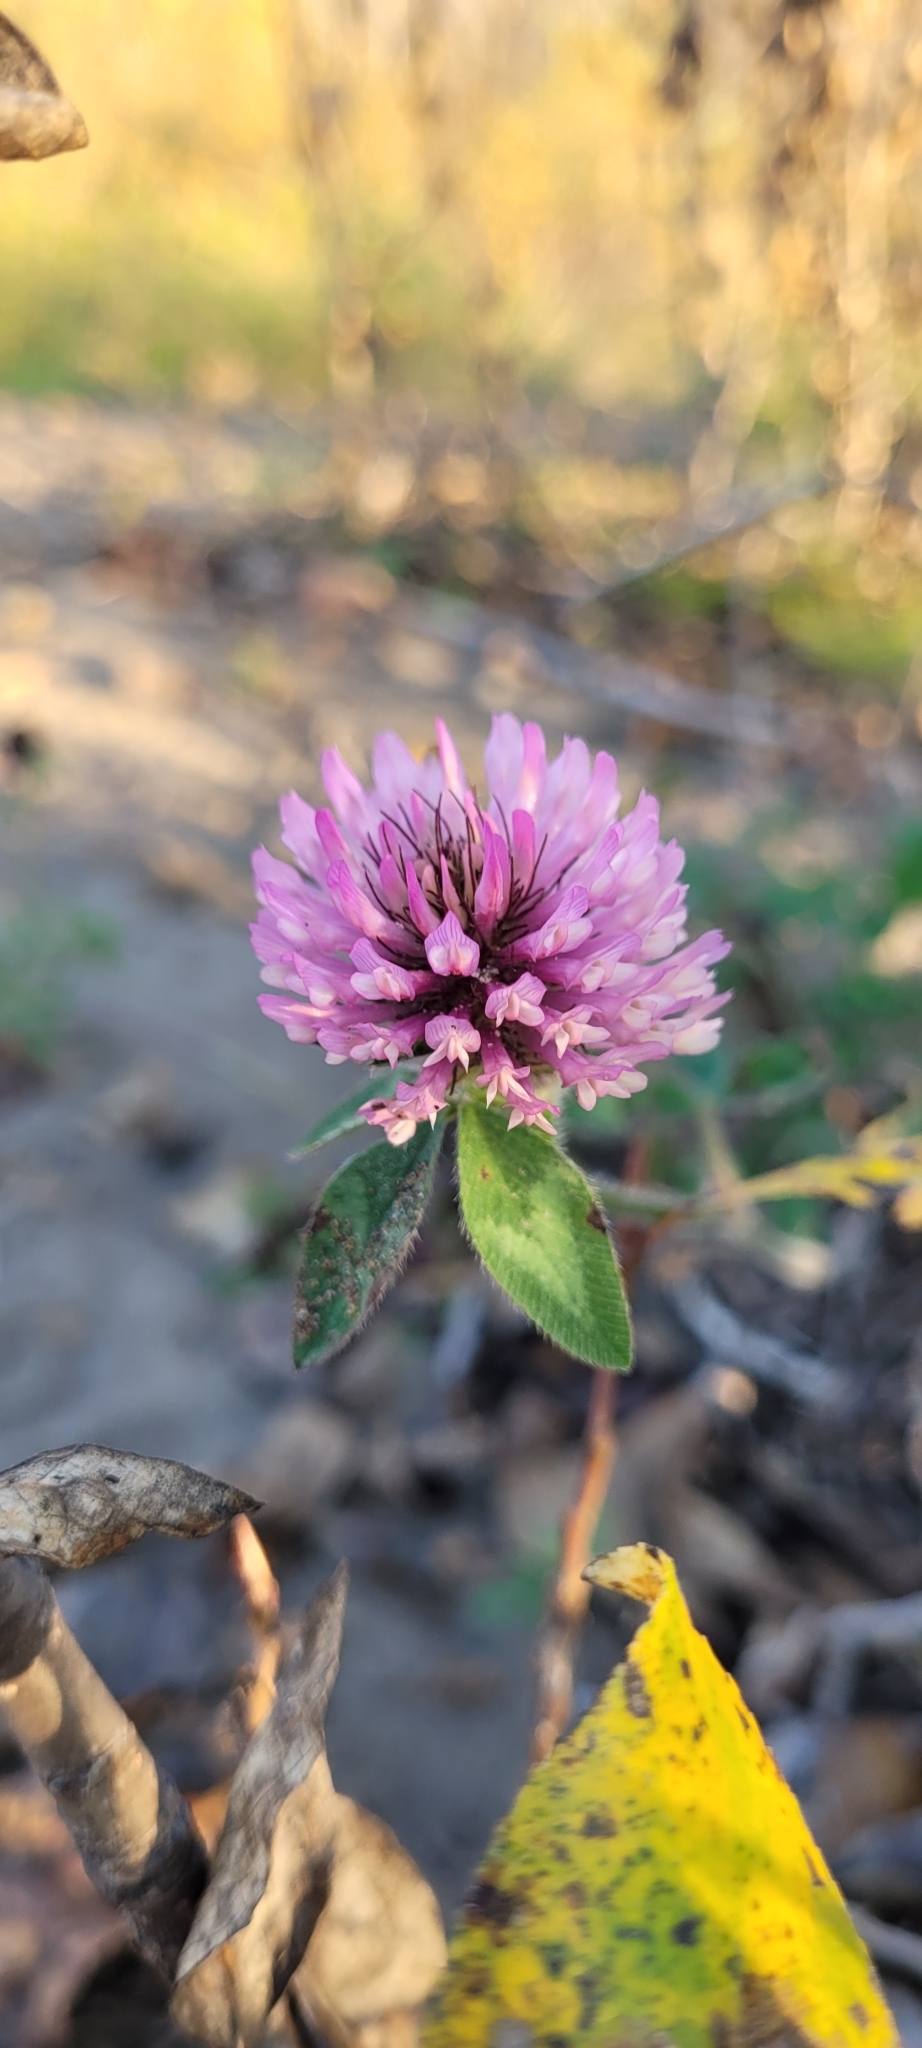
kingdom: Plantae
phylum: Tracheophyta
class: Magnoliopsida
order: Fabales
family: Fabaceae
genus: Trifolium
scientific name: Trifolium pratense
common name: Red clover
